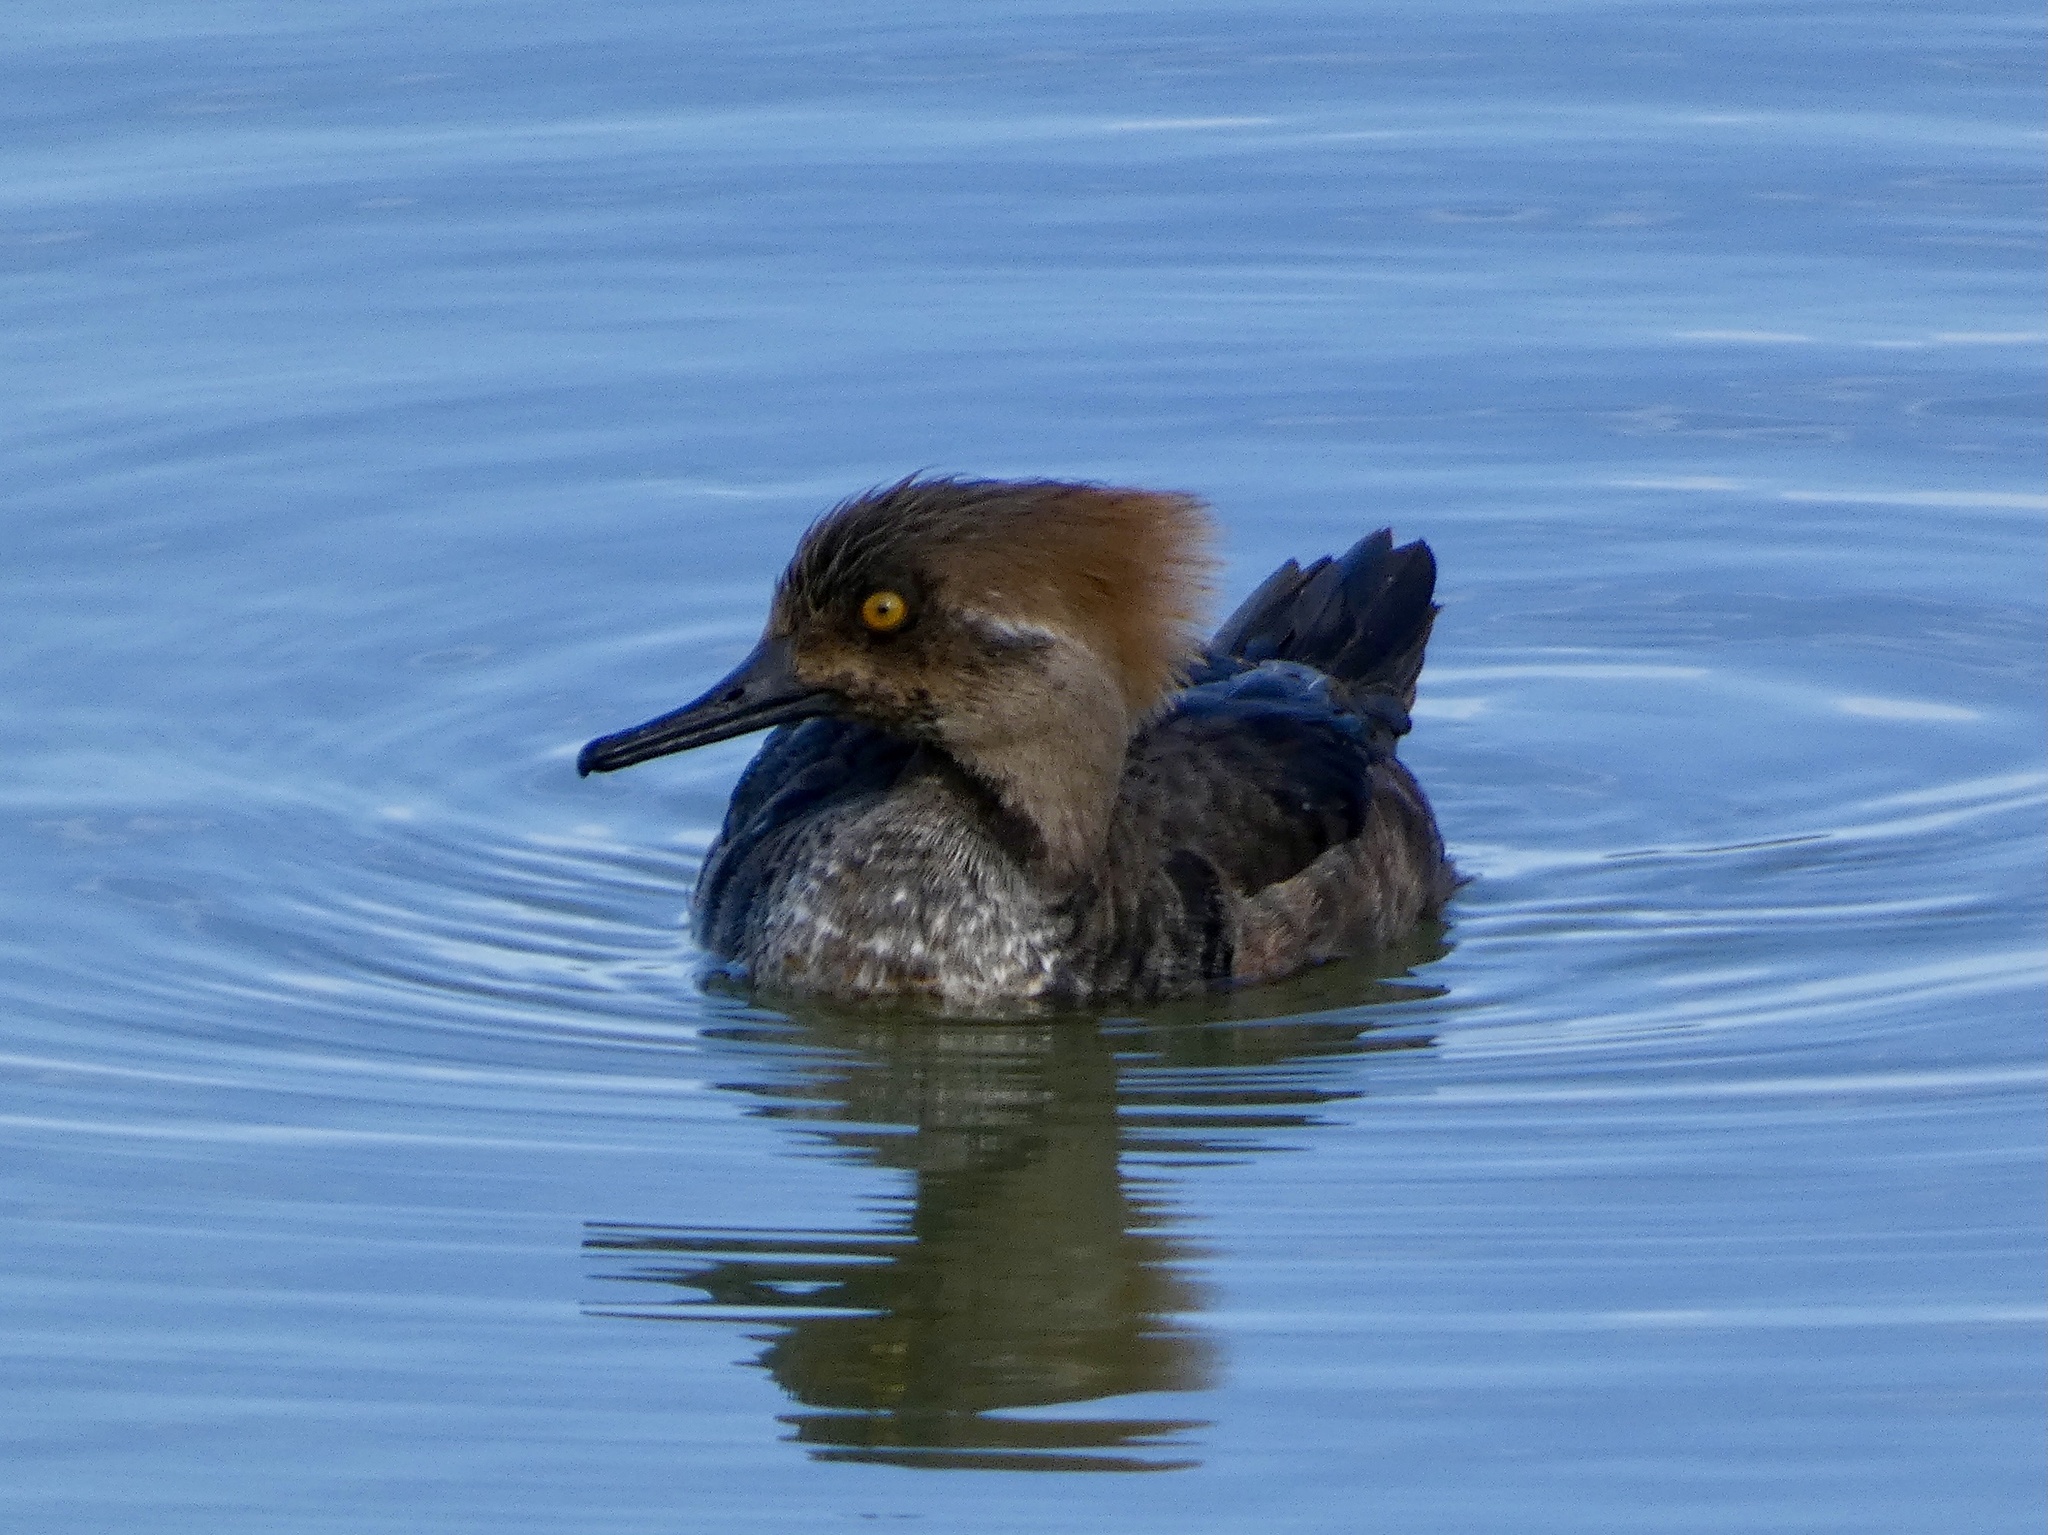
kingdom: Animalia
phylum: Chordata
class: Aves
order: Anseriformes
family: Anatidae
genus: Lophodytes
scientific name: Lophodytes cucullatus
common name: Hooded merganser
